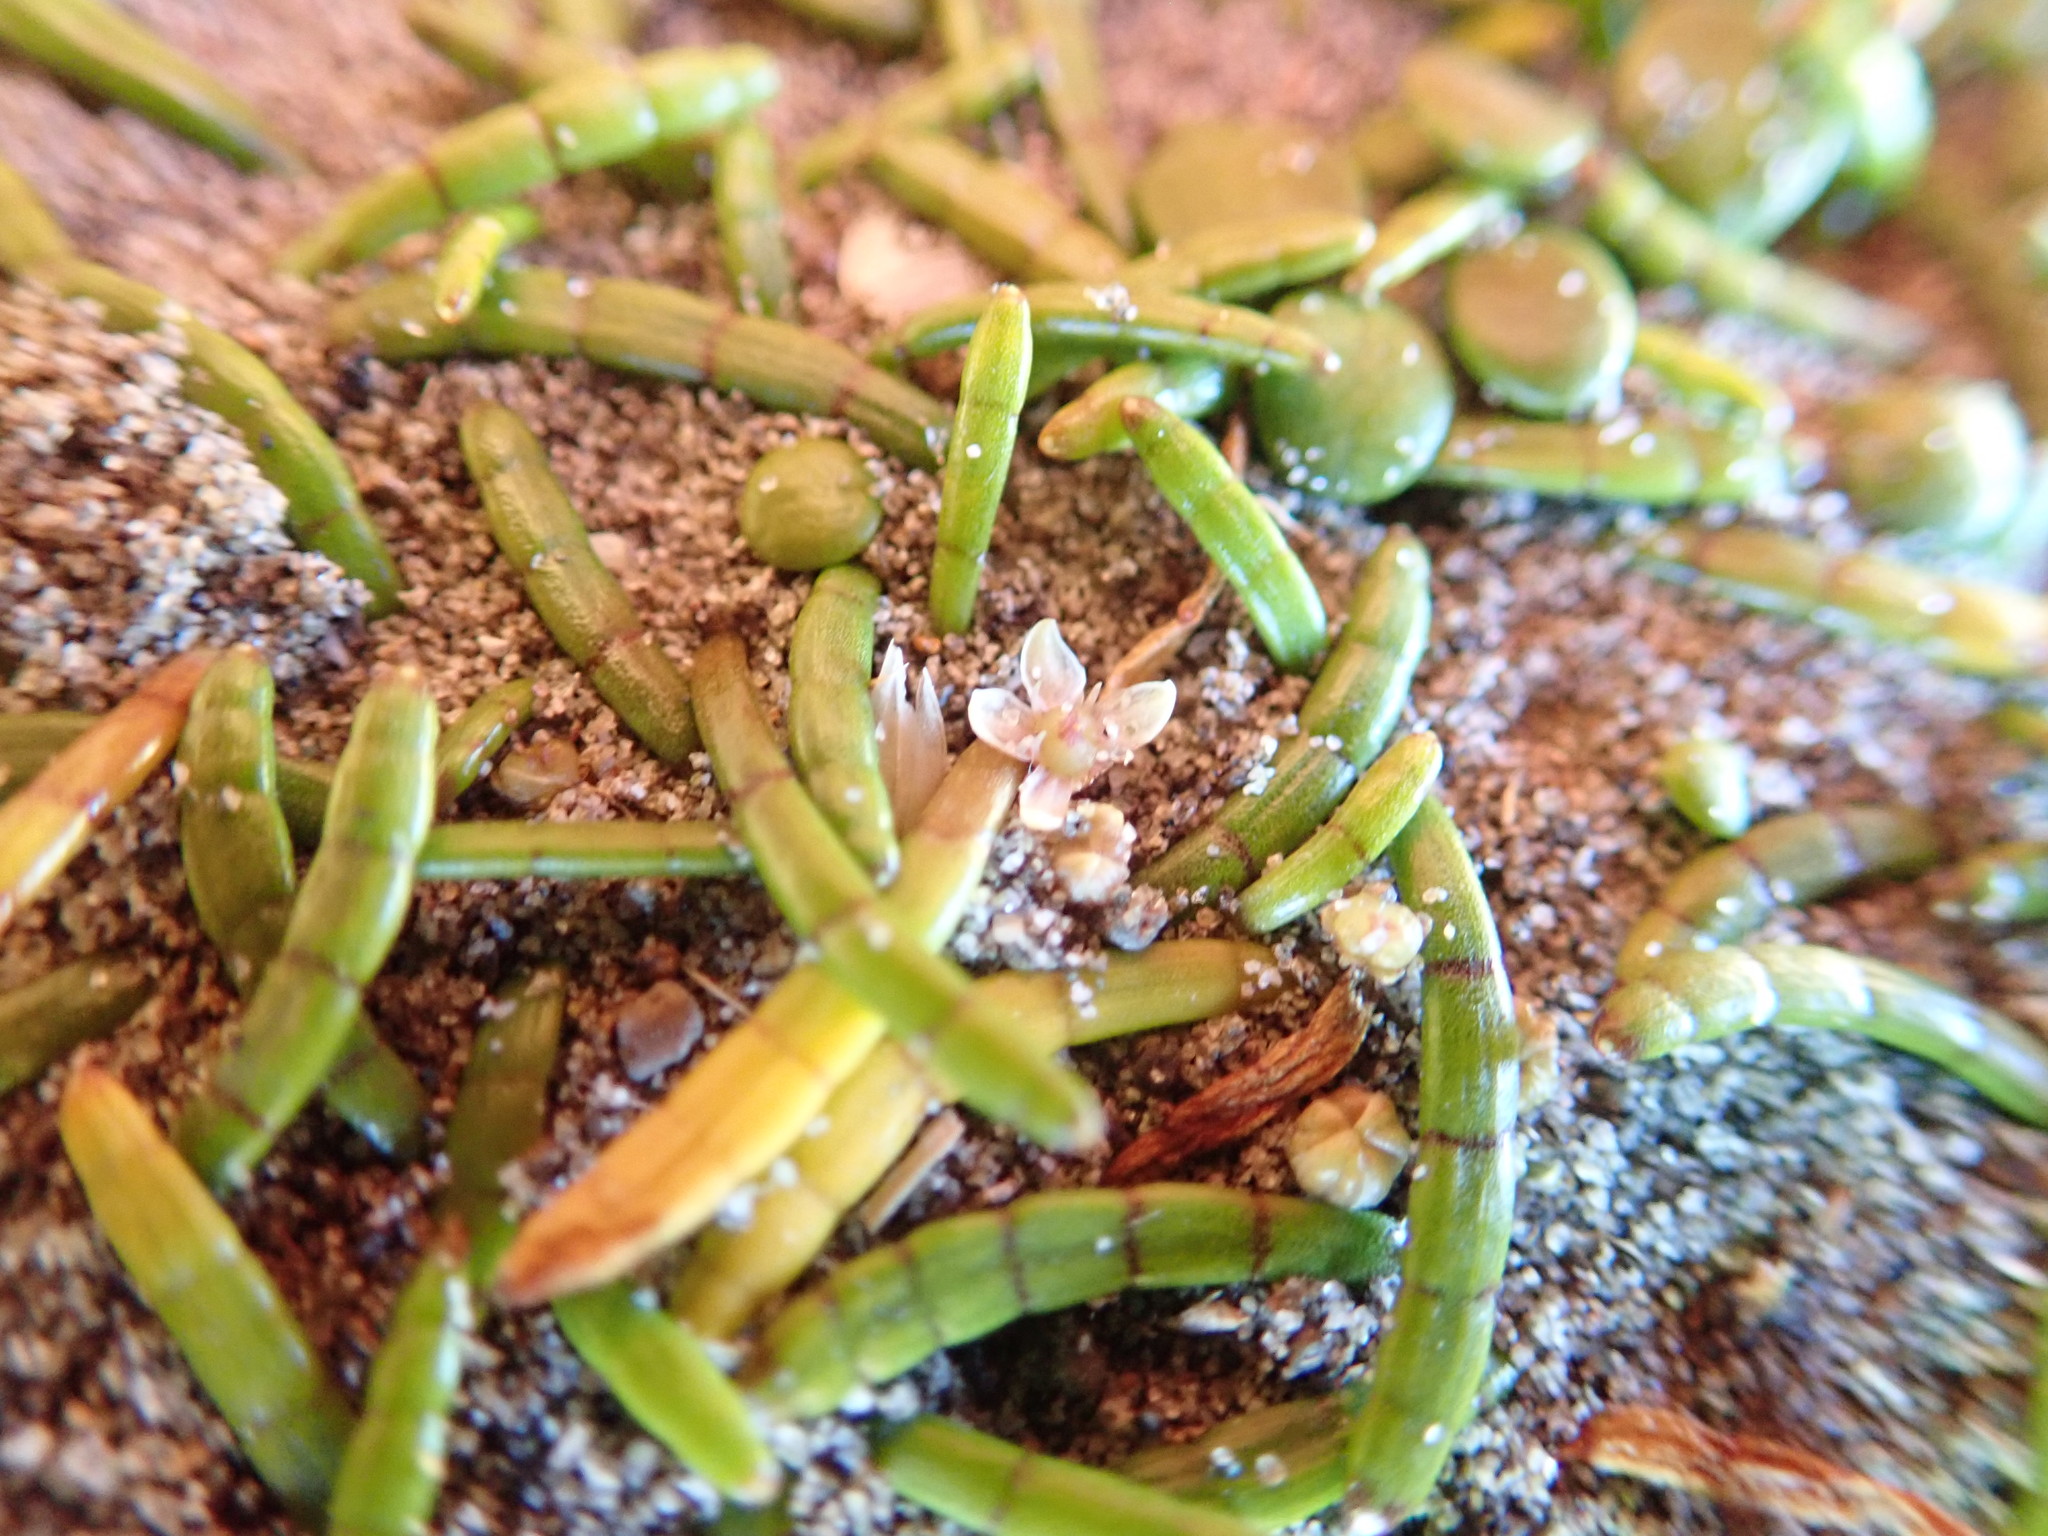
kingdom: Plantae
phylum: Tracheophyta
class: Magnoliopsida
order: Apiales
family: Apiaceae
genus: Lilaeopsis
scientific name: Lilaeopsis novae-zelandiae
